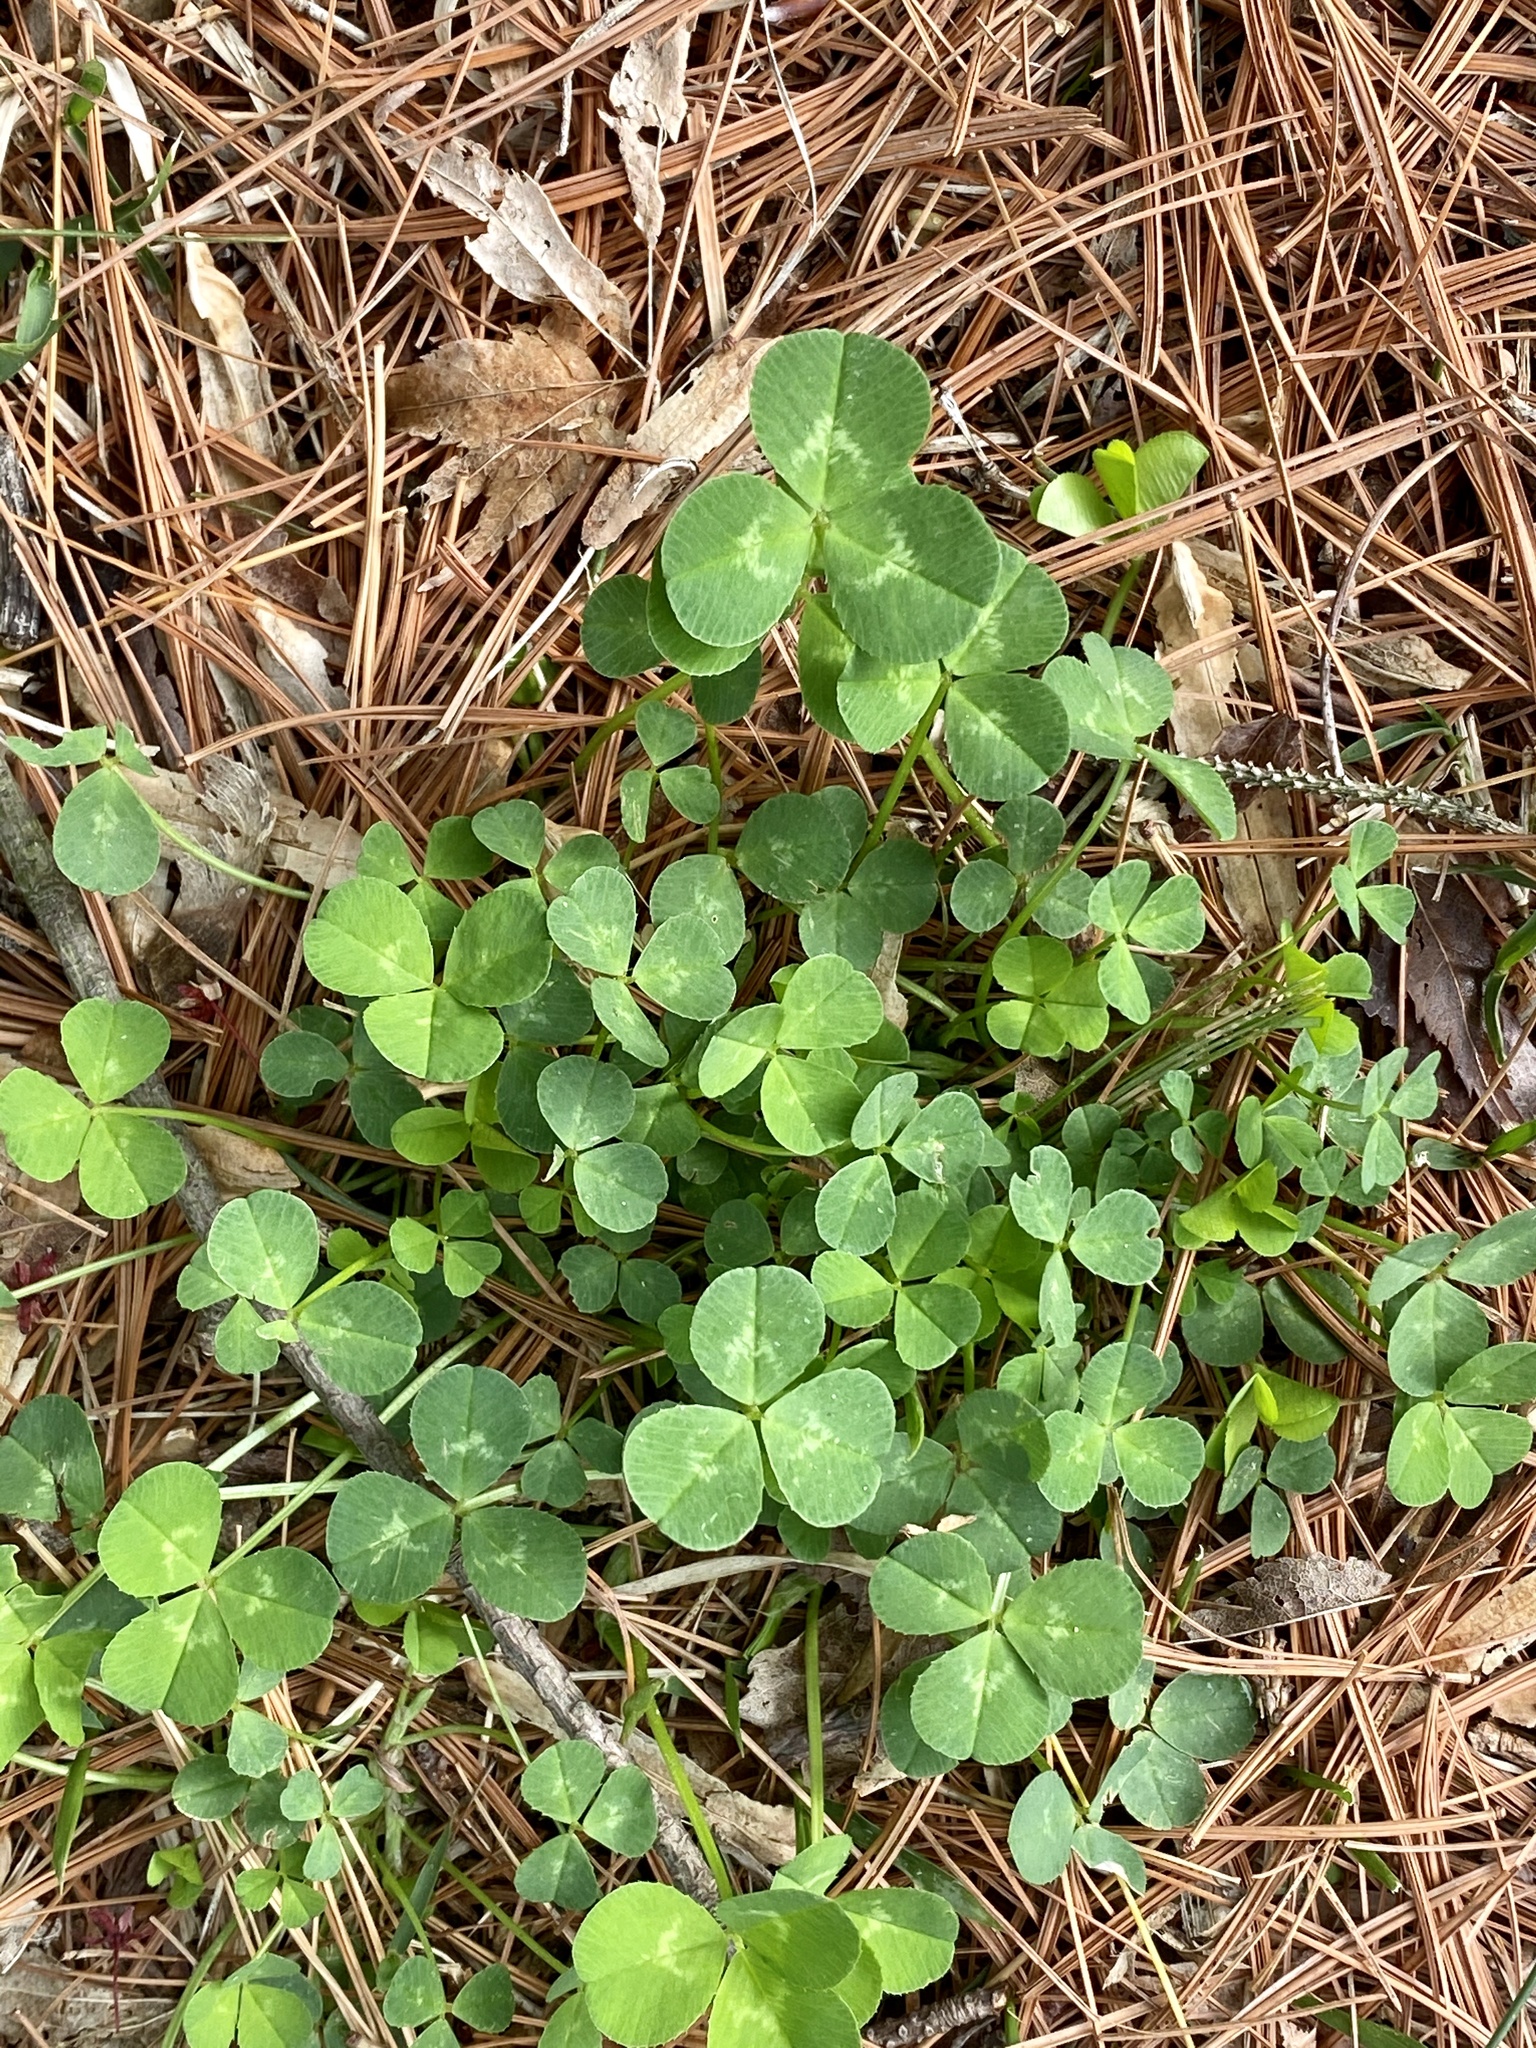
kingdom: Plantae
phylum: Tracheophyta
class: Magnoliopsida
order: Fabales
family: Fabaceae
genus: Trifolium
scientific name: Trifolium repens
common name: White clover
